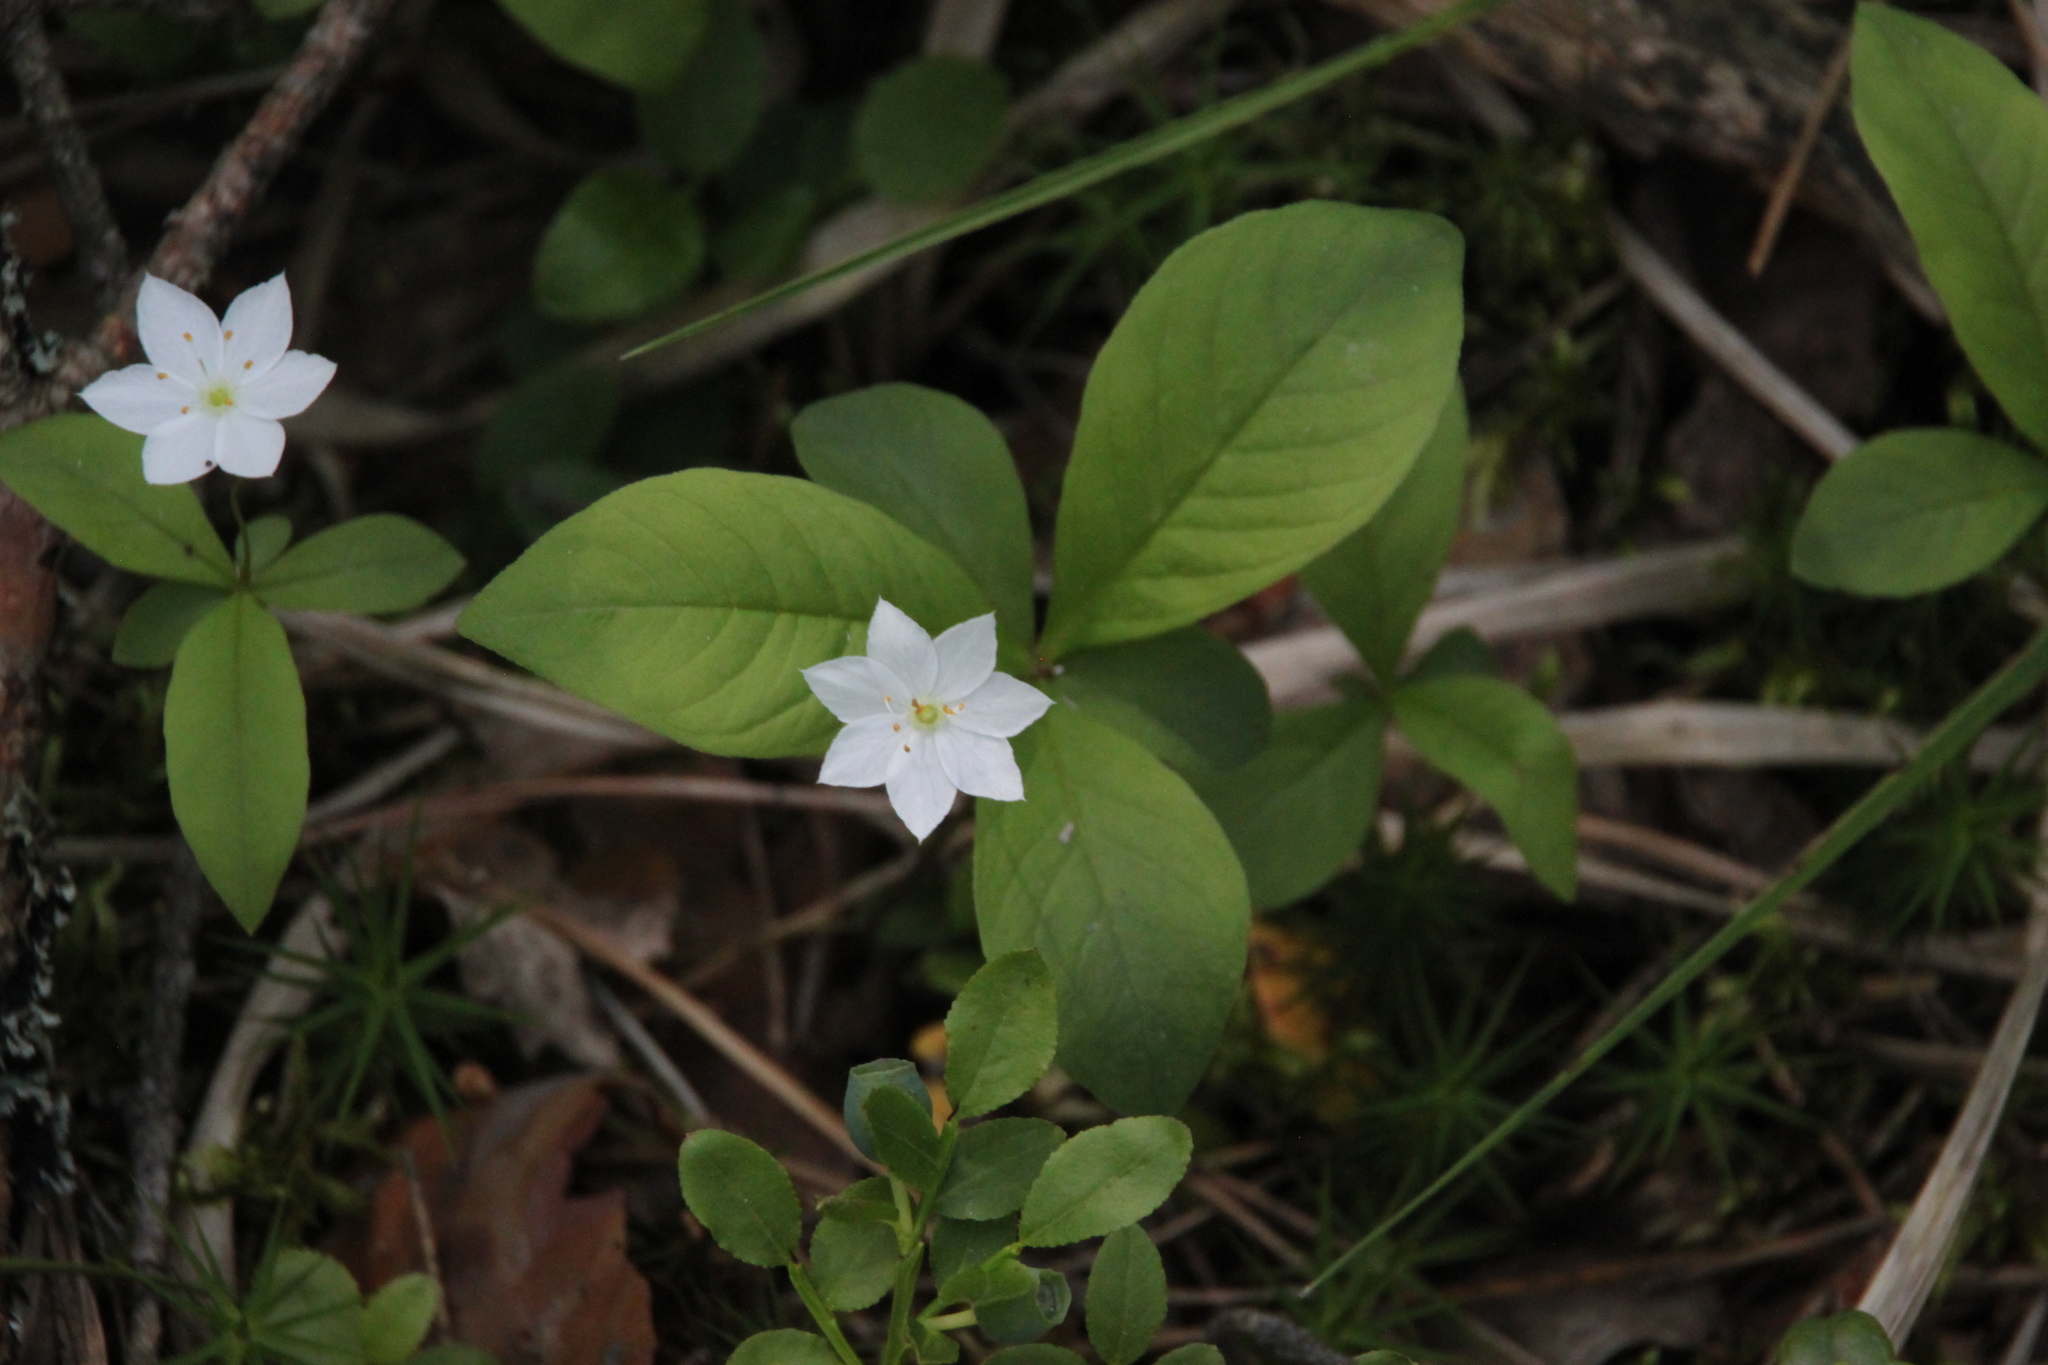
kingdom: Plantae
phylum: Tracheophyta
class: Magnoliopsida
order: Ericales
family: Primulaceae
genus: Lysimachia
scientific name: Lysimachia europaea
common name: Arctic starflower
